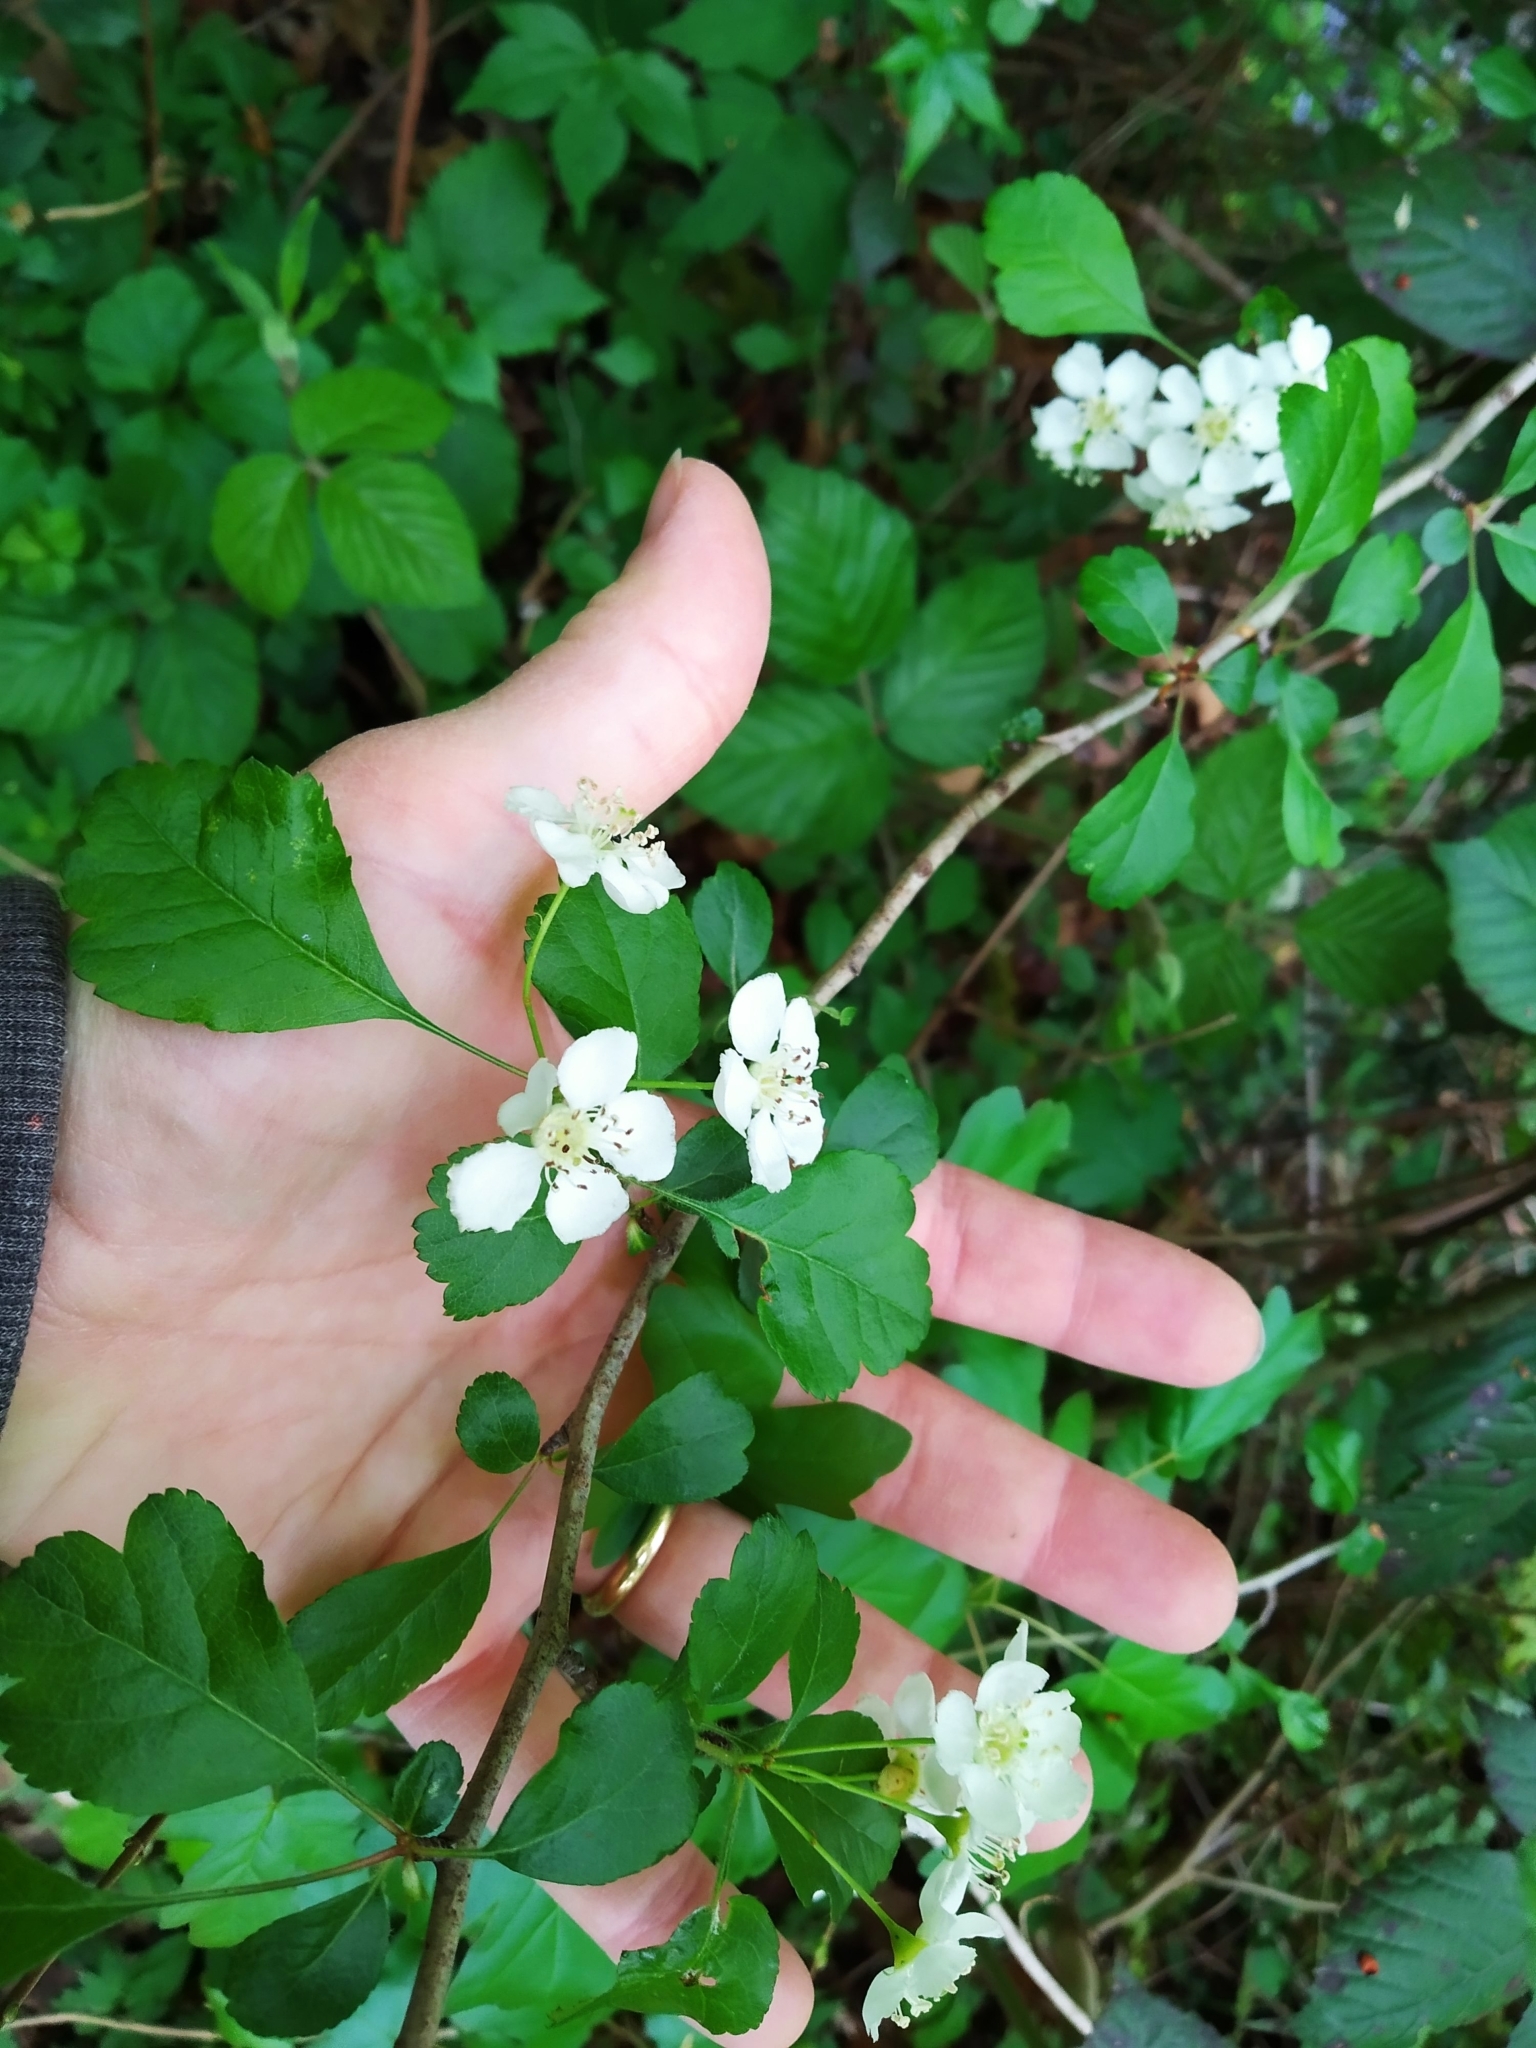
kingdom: Plantae
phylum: Tracheophyta
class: Magnoliopsida
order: Rosales
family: Rosaceae
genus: Crataegus
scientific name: Crataegus laevigata
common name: Midland hawthorn
